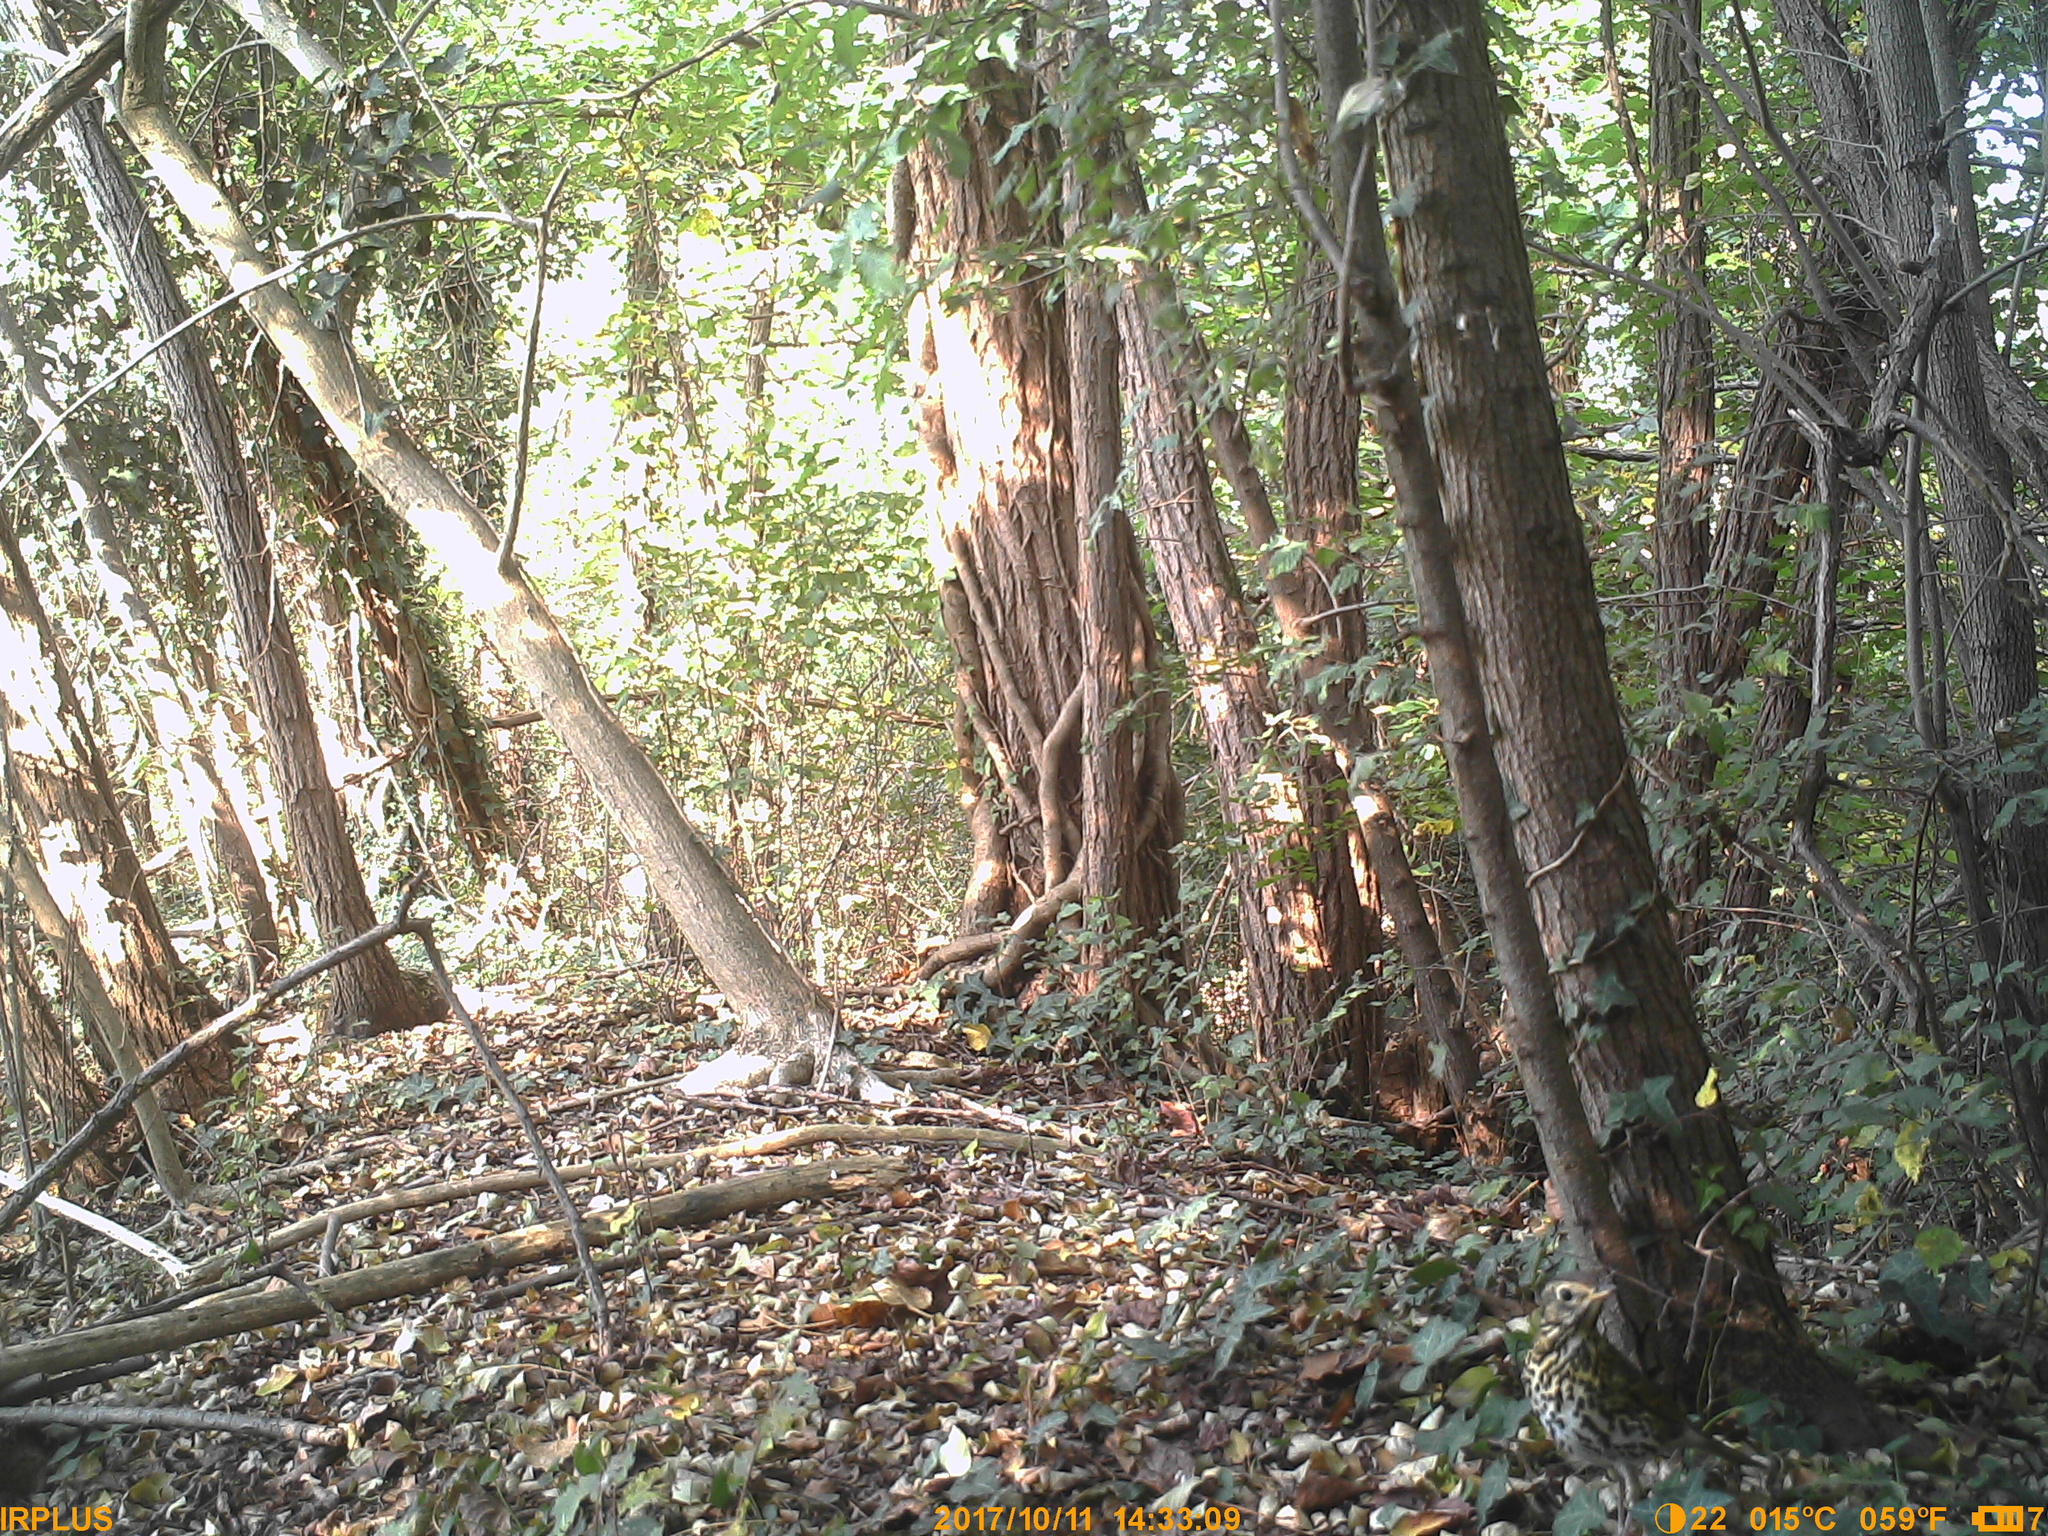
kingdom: Animalia
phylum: Chordata
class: Aves
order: Passeriformes
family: Turdidae
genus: Turdus
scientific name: Turdus philomelos
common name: Song thrush
